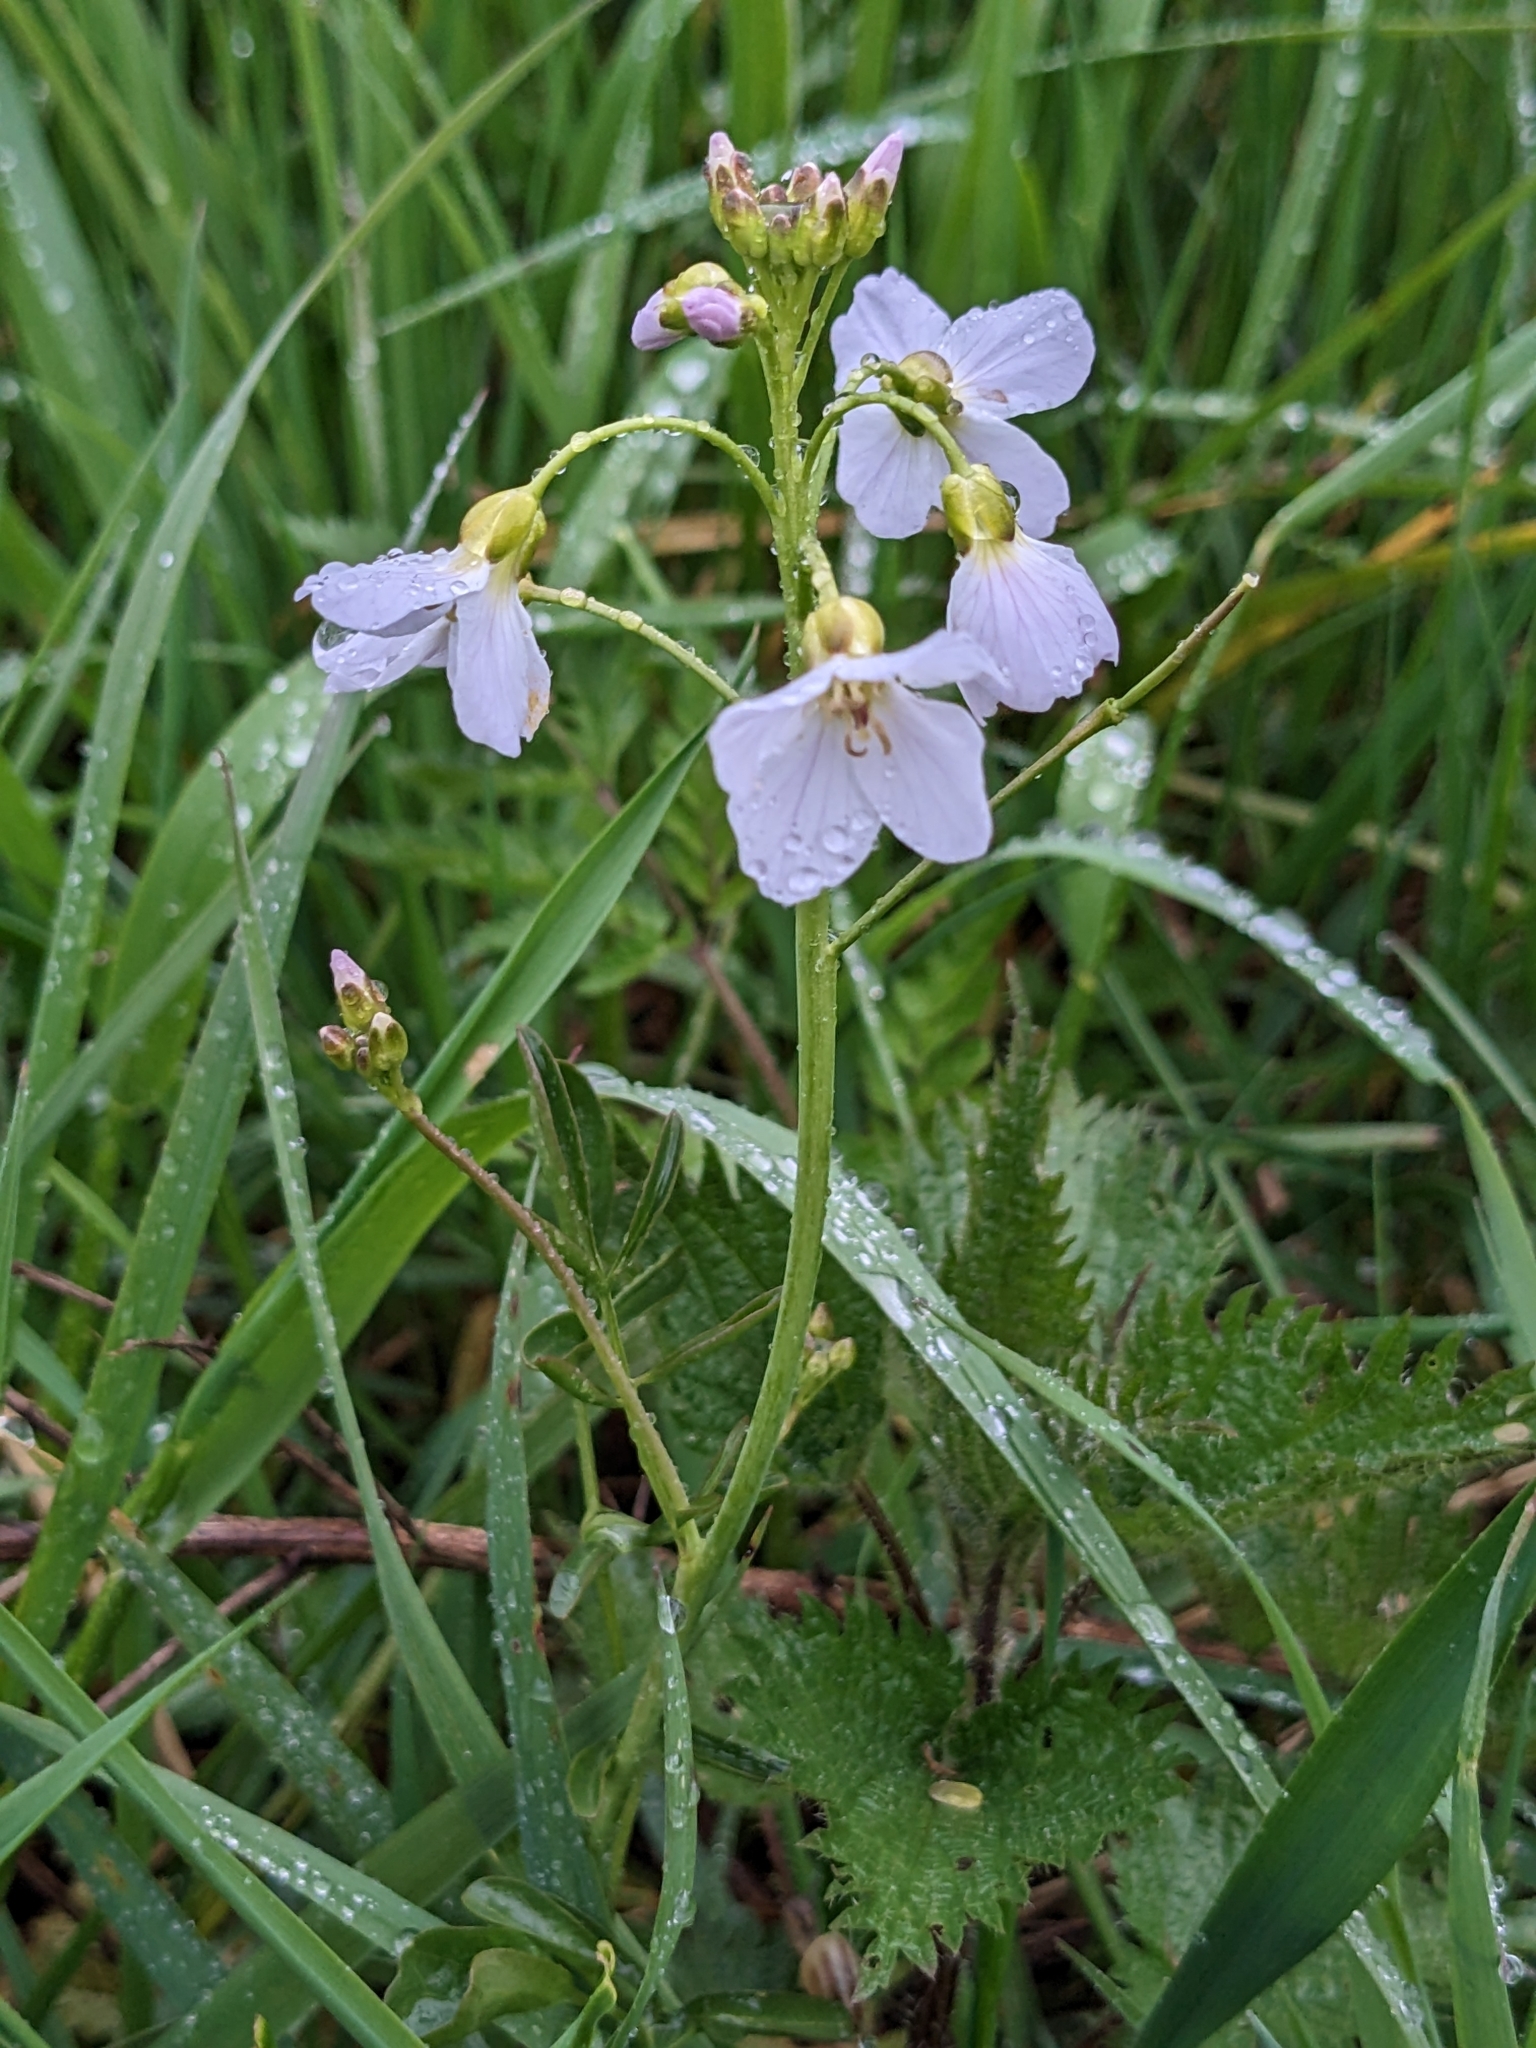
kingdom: Plantae
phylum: Tracheophyta
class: Magnoliopsida
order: Brassicales
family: Brassicaceae
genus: Cardamine
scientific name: Cardamine pratensis
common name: Cuckoo flower
